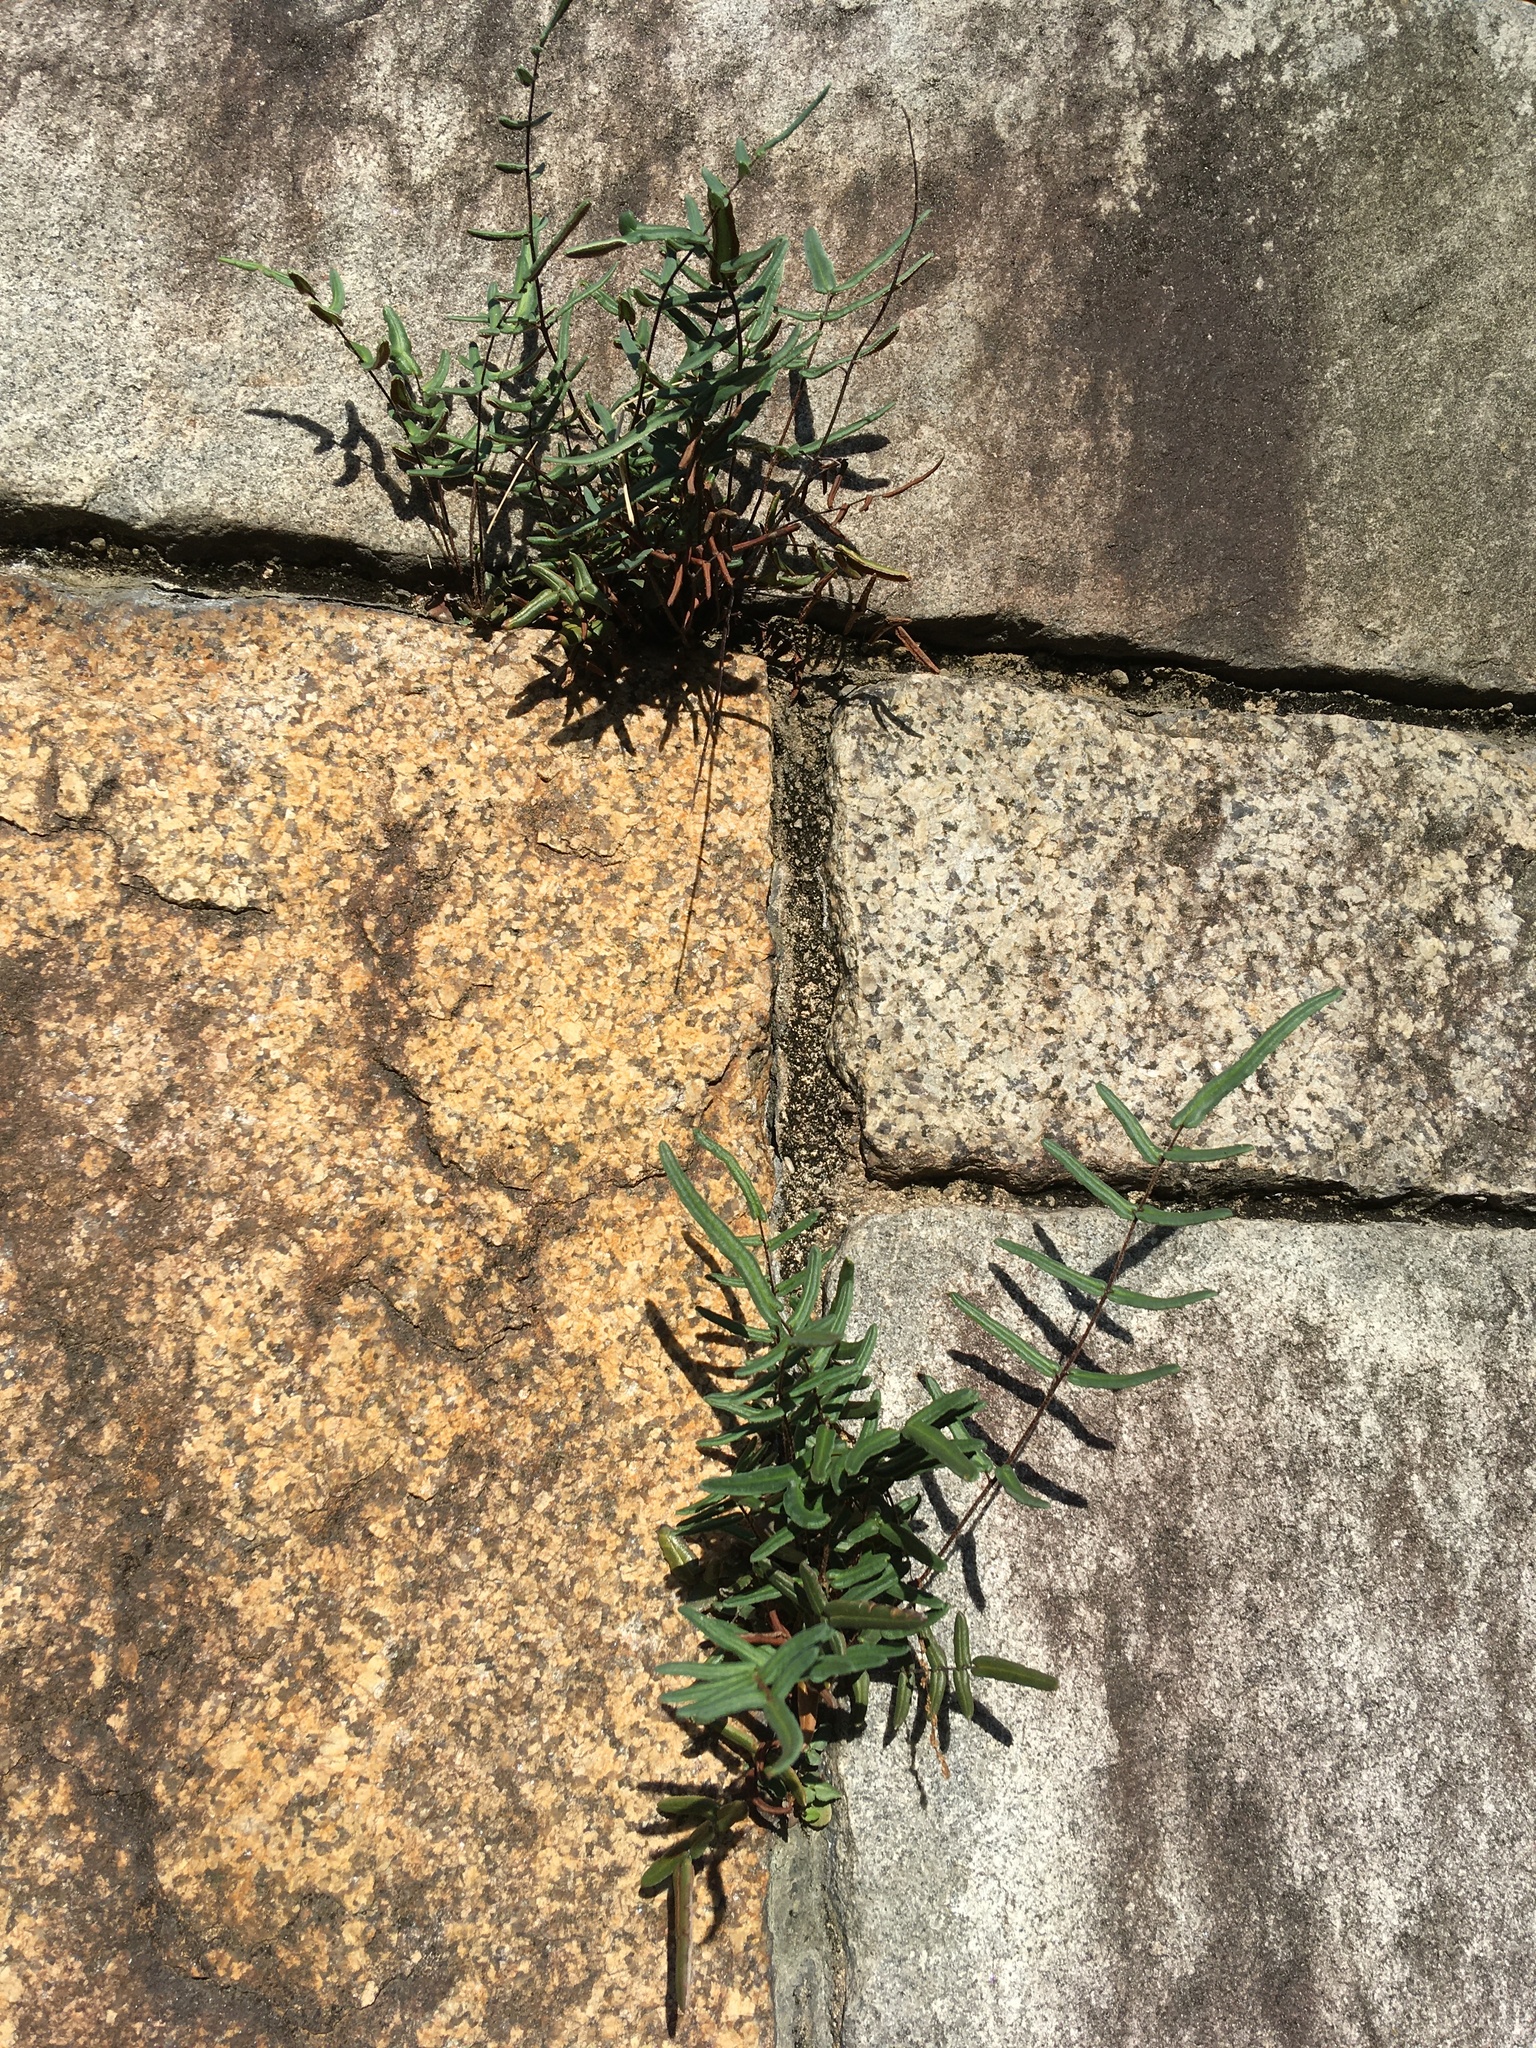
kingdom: Plantae
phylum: Tracheophyta
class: Polypodiopsida
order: Polypodiales
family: Pteridaceae
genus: Pellaea
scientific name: Pellaea atropurpurea
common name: Hairy cliffbrake
